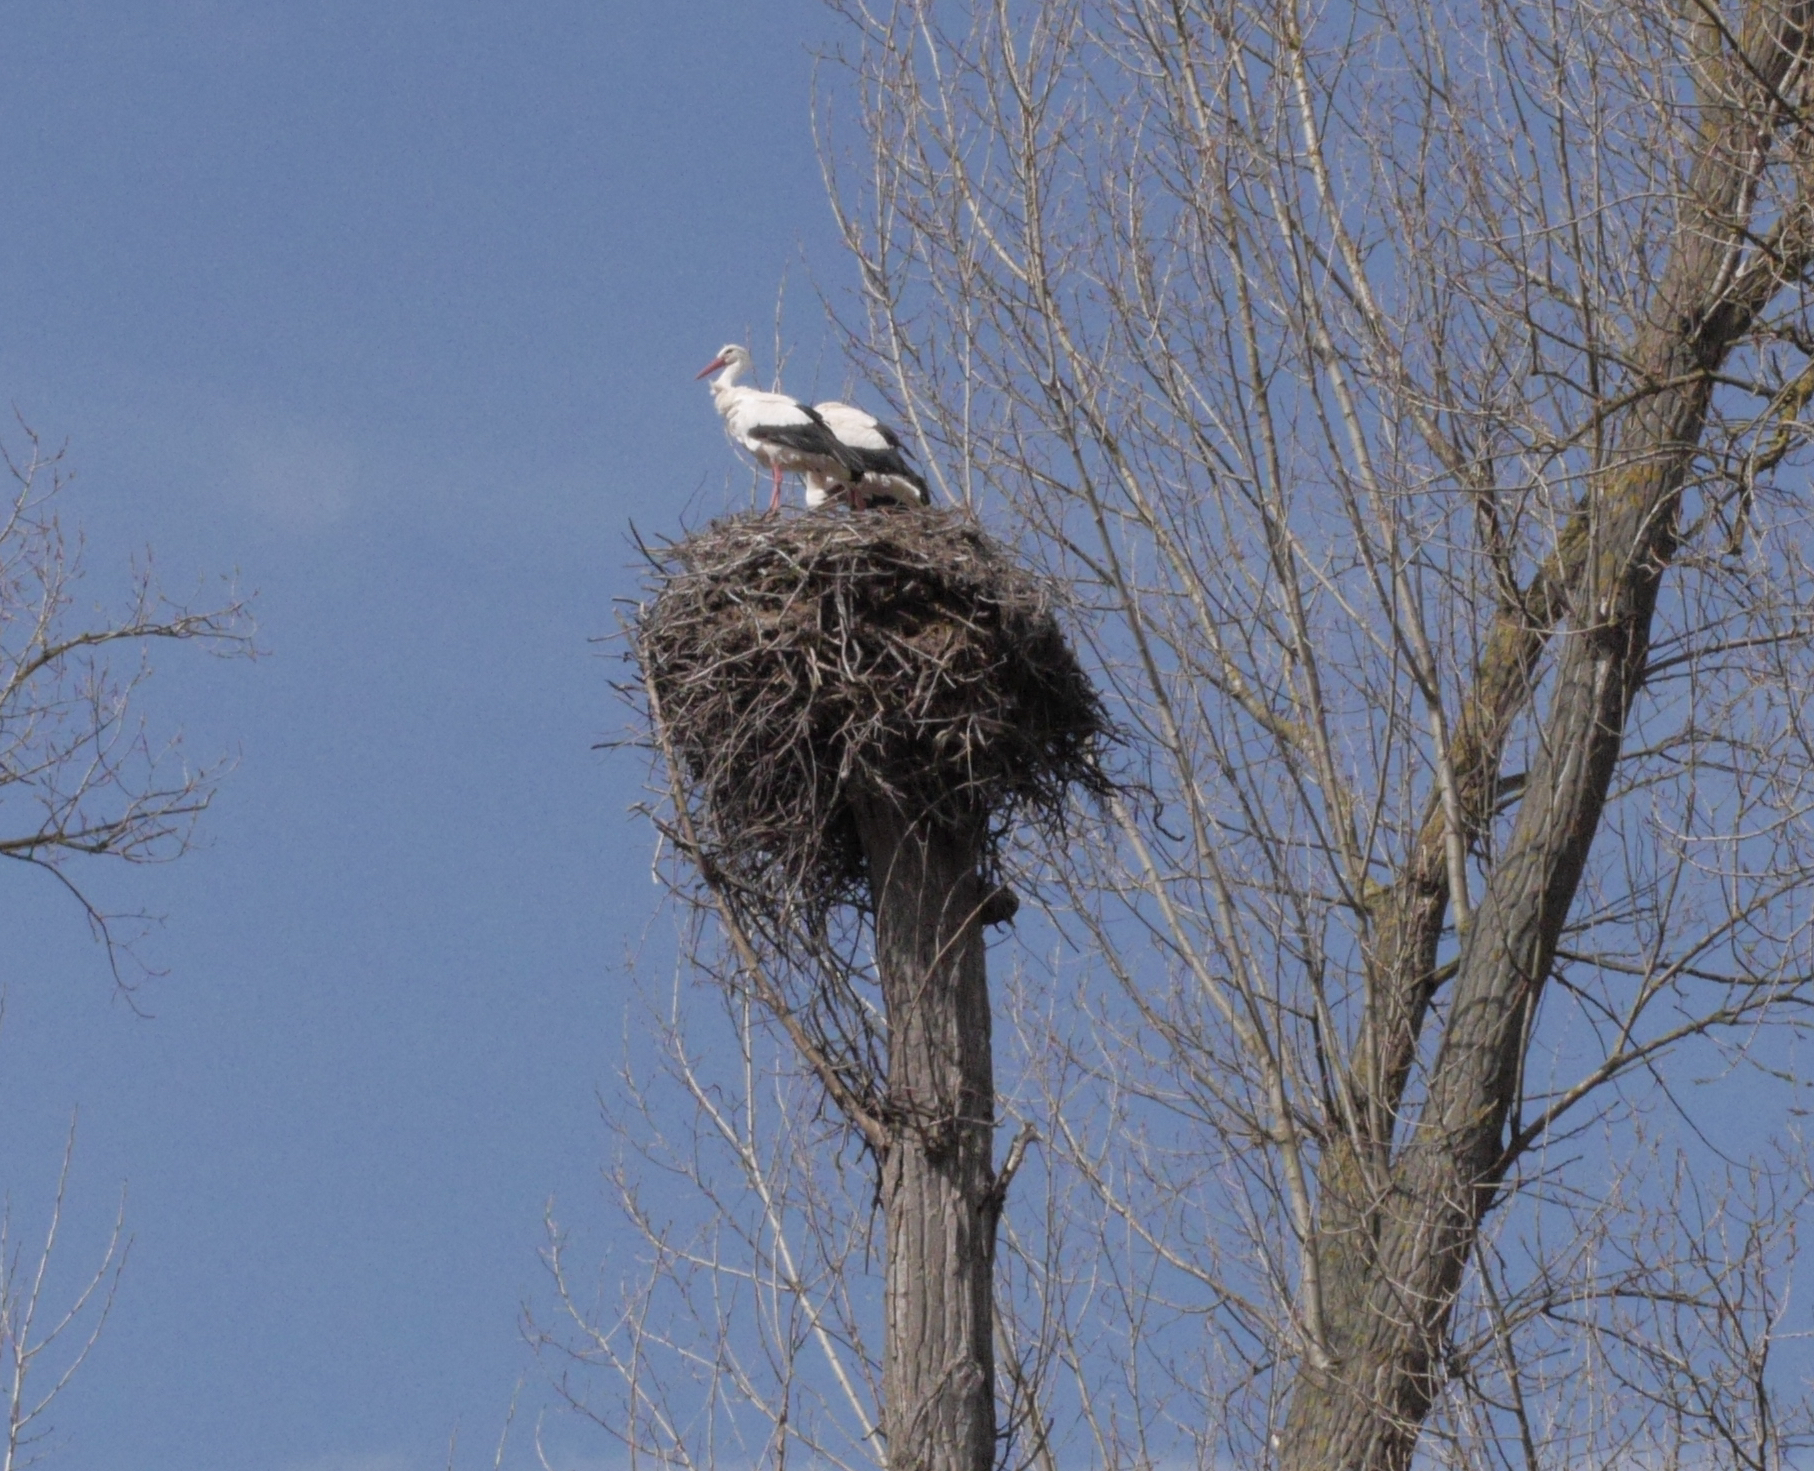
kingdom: Animalia
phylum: Chordata
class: Aves
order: Ciconiiformes
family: Ciconiidae
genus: Ciconia
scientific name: Ciconia ciconia
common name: White stork
